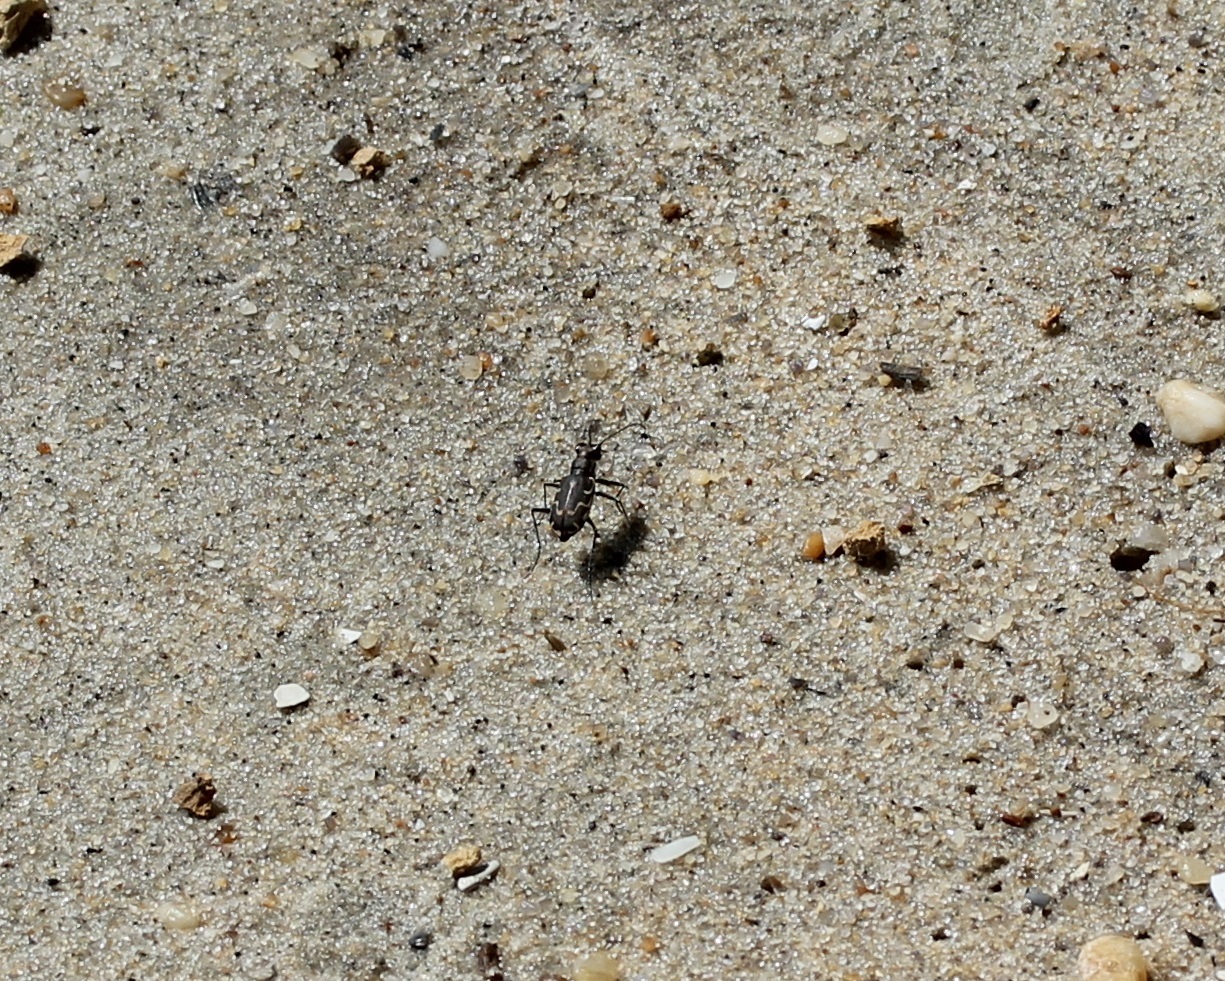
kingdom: Animalia
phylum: Arthropoda
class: Insecta
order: Coleoptera
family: Carabidae
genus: Cicindela
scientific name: Cicindela repanda
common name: Bronzed tiger beetle
